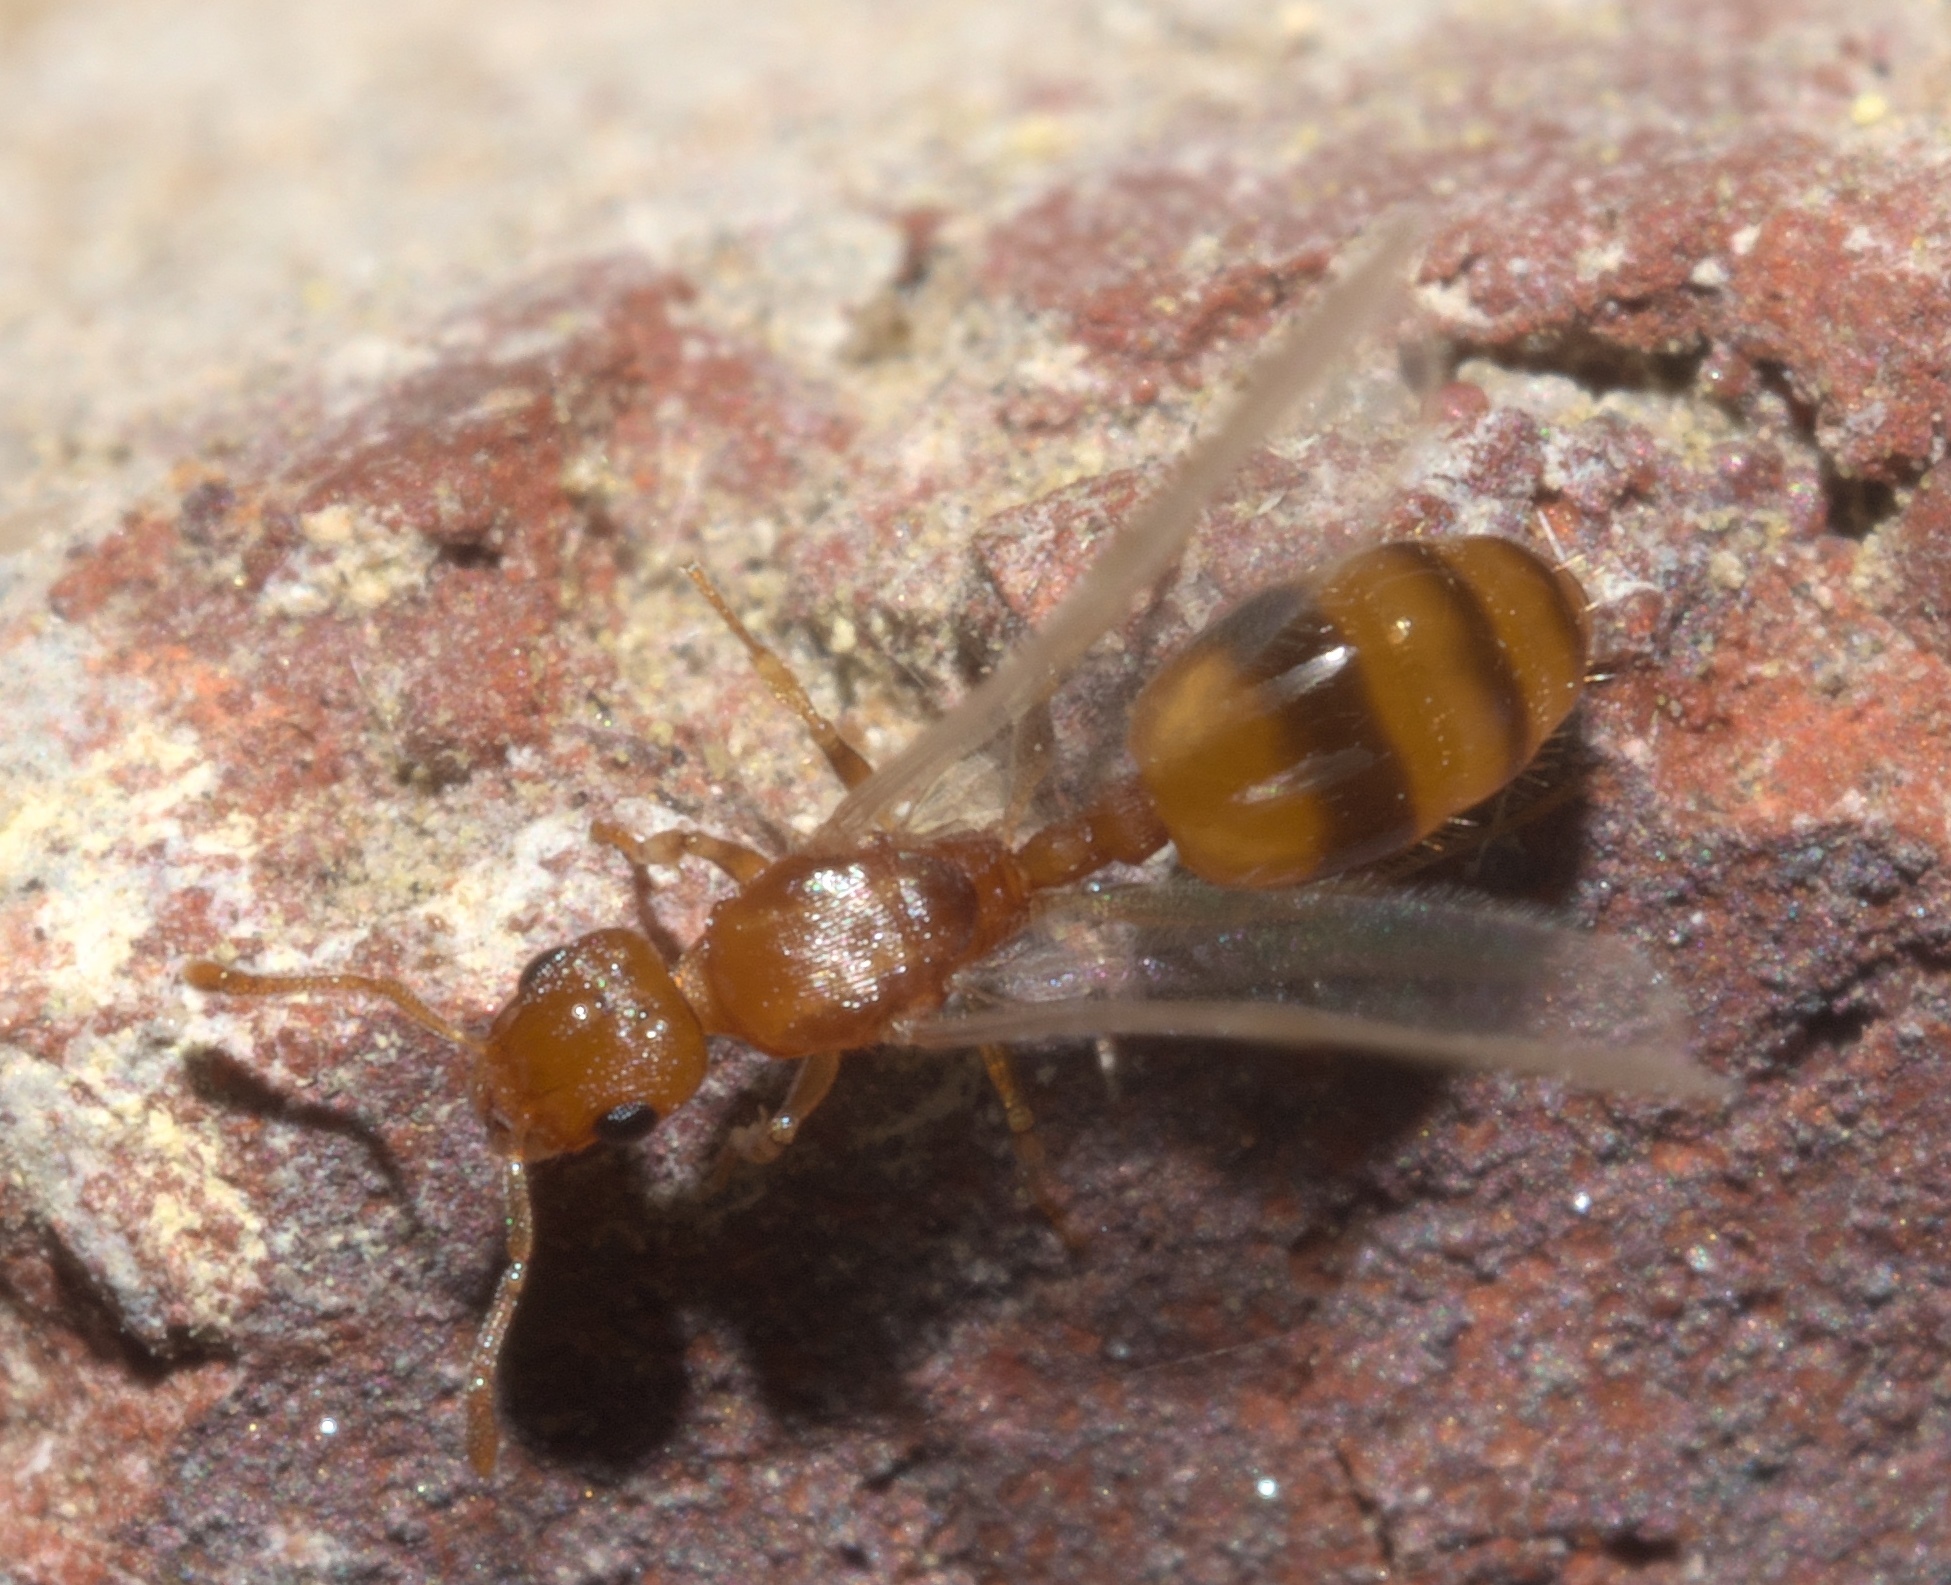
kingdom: Animalia
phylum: Arthropoda
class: Insecta
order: Hymenoptera
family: Formicidae
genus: Temnothorax
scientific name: Temnothorax curvispinosus
